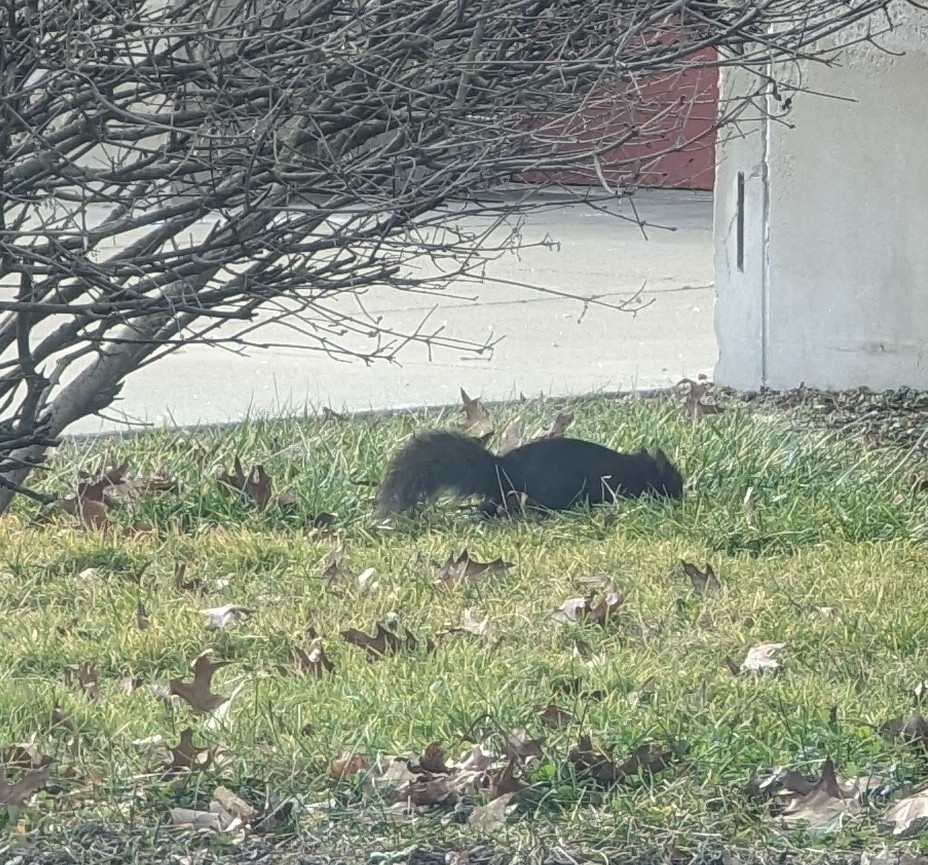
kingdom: Animalia
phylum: Chordata
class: Mammalia
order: Rodentia
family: Sciuridae
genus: Sciurus
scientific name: Sciurus carolinensis
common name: Eastern gray squirrel
